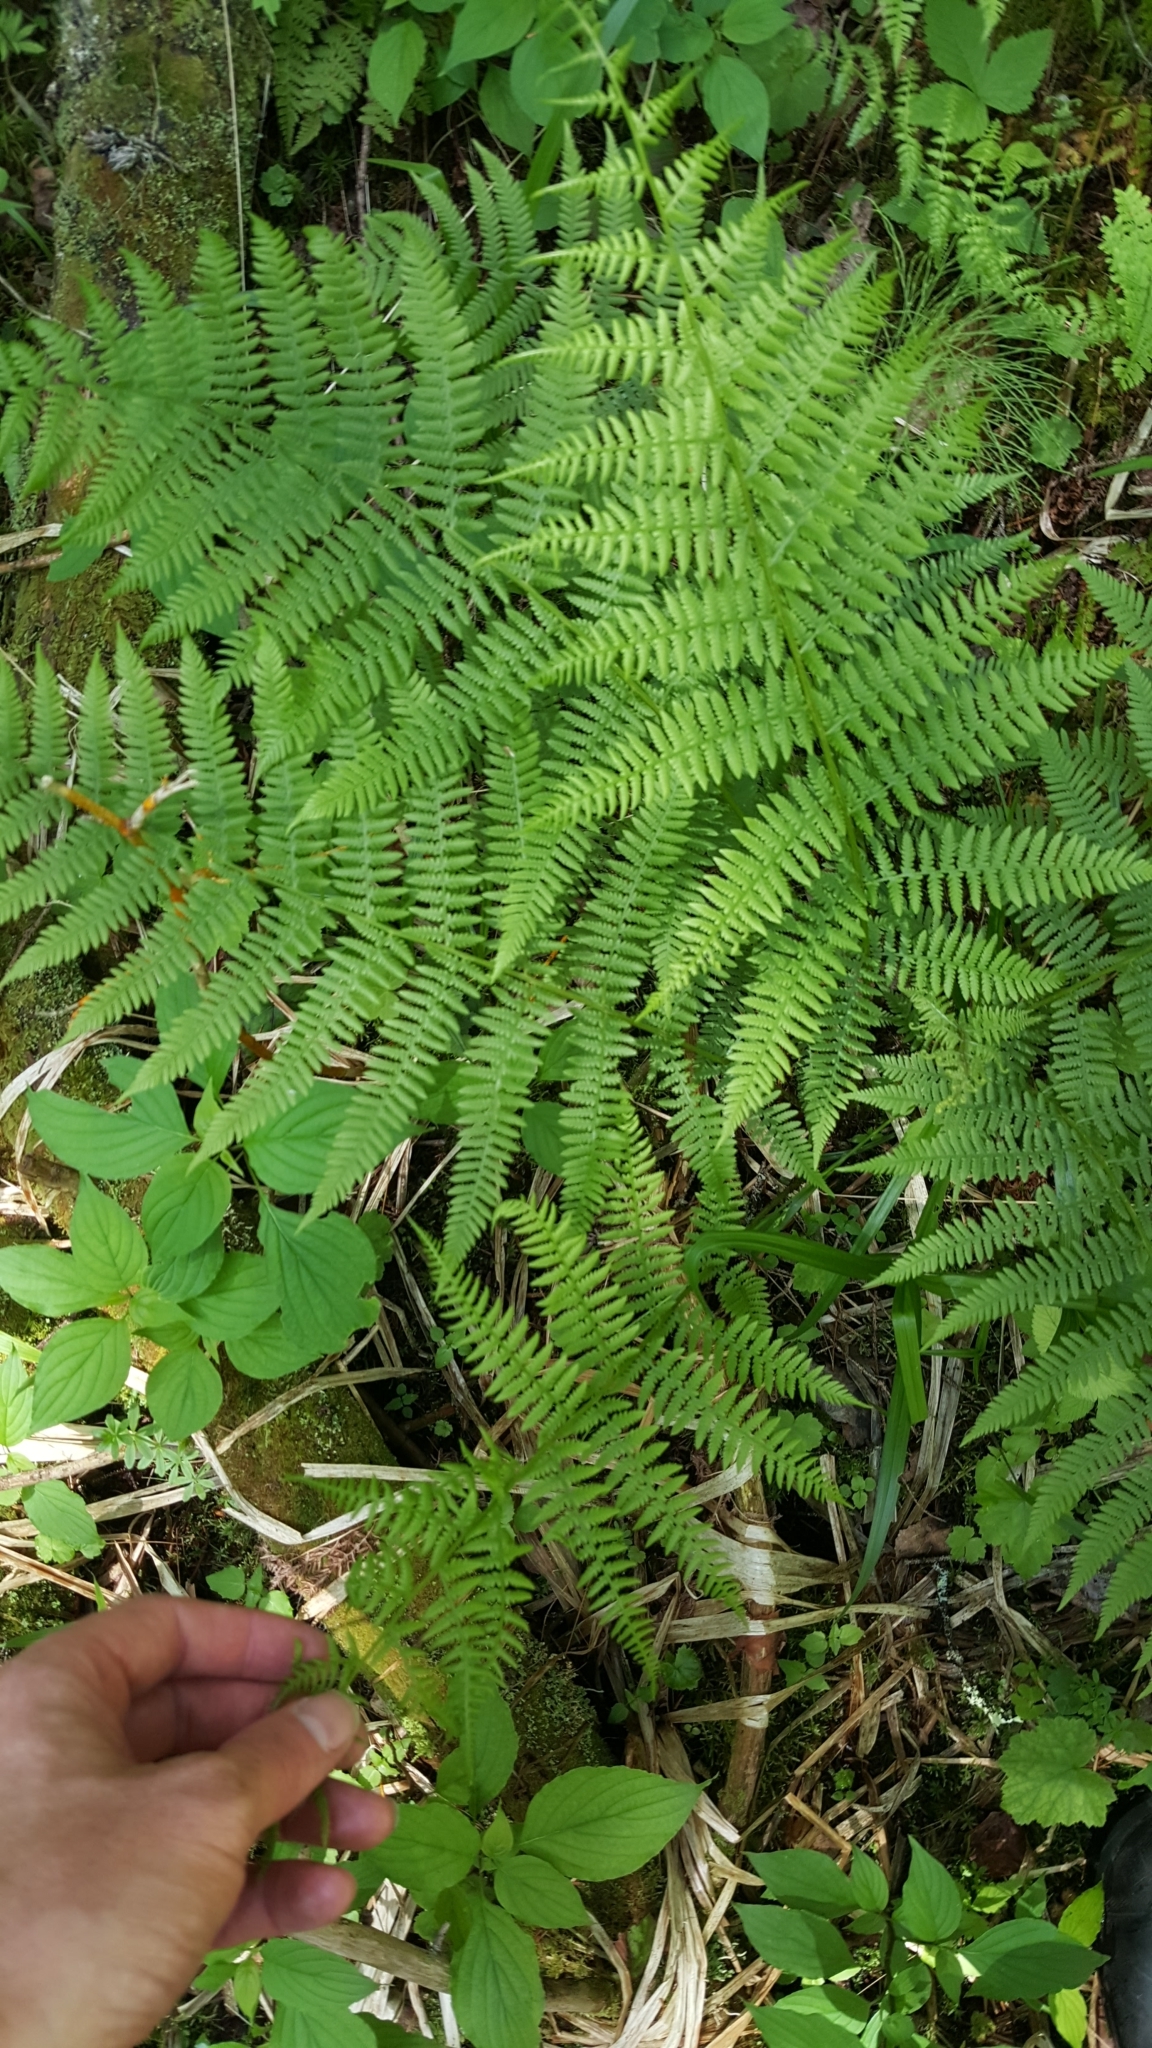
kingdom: Plantae
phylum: Tracheophyta
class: Polypodiopsida
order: Polypodiales
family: Athyriaceae
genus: Athyrium
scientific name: Athyrium angustum
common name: Northern lady fern
